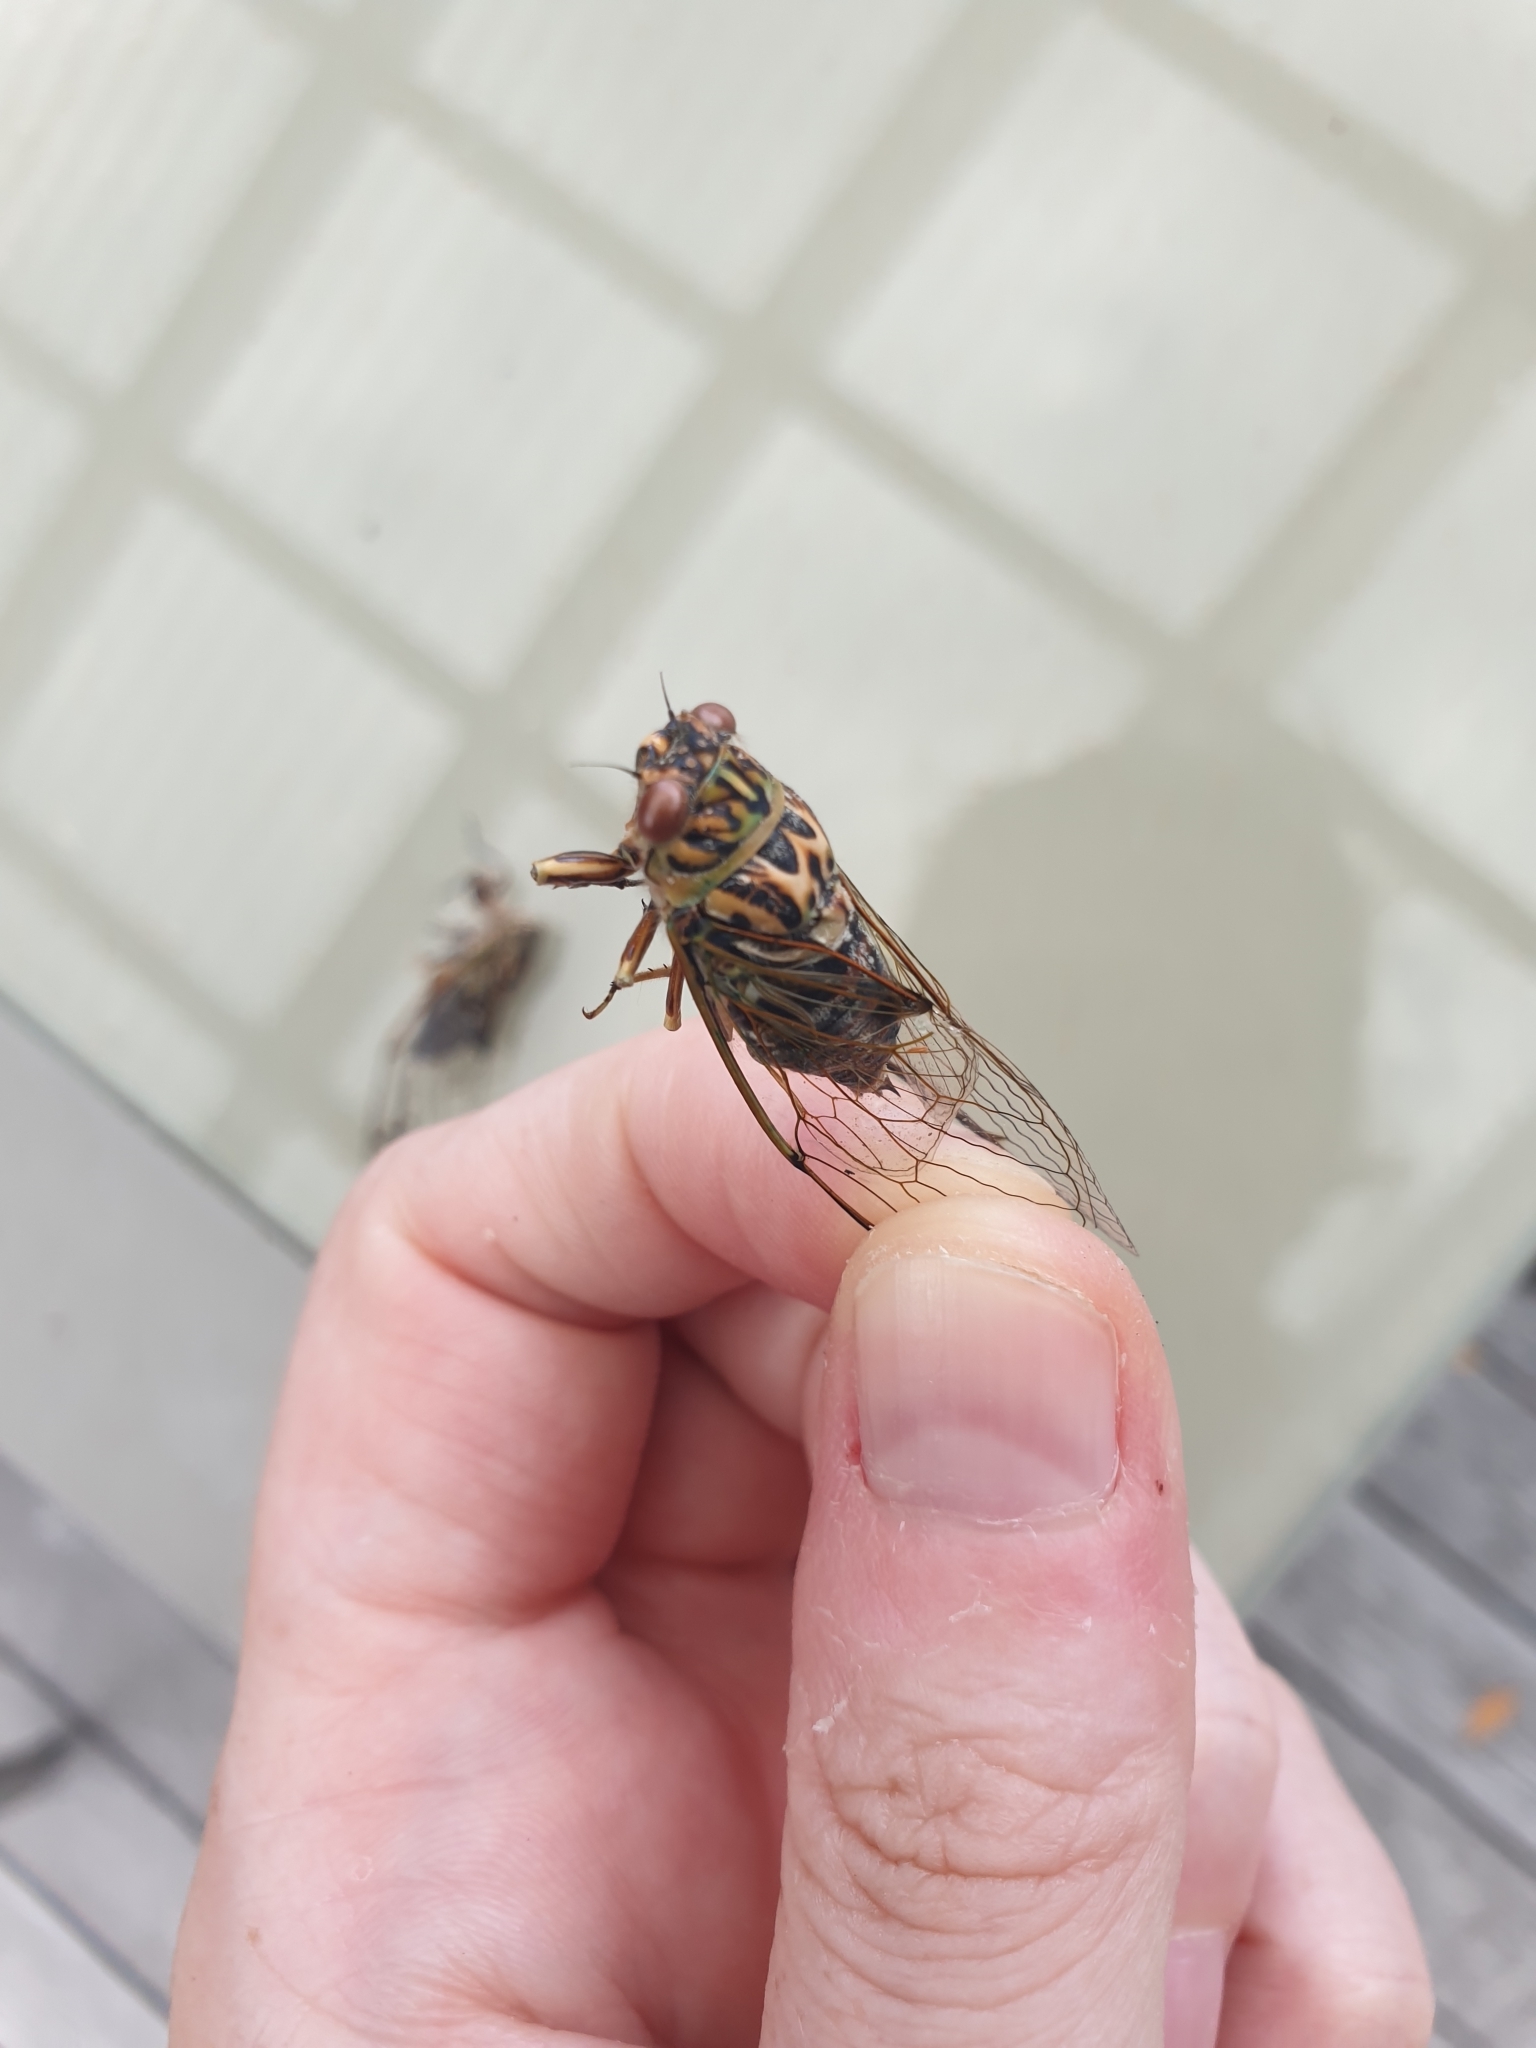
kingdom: Animalia
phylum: Arthropoda
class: Insecta
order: Hemiptera
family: Cicadidae
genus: Amphipsalta
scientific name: Amphipsalta zelandica
